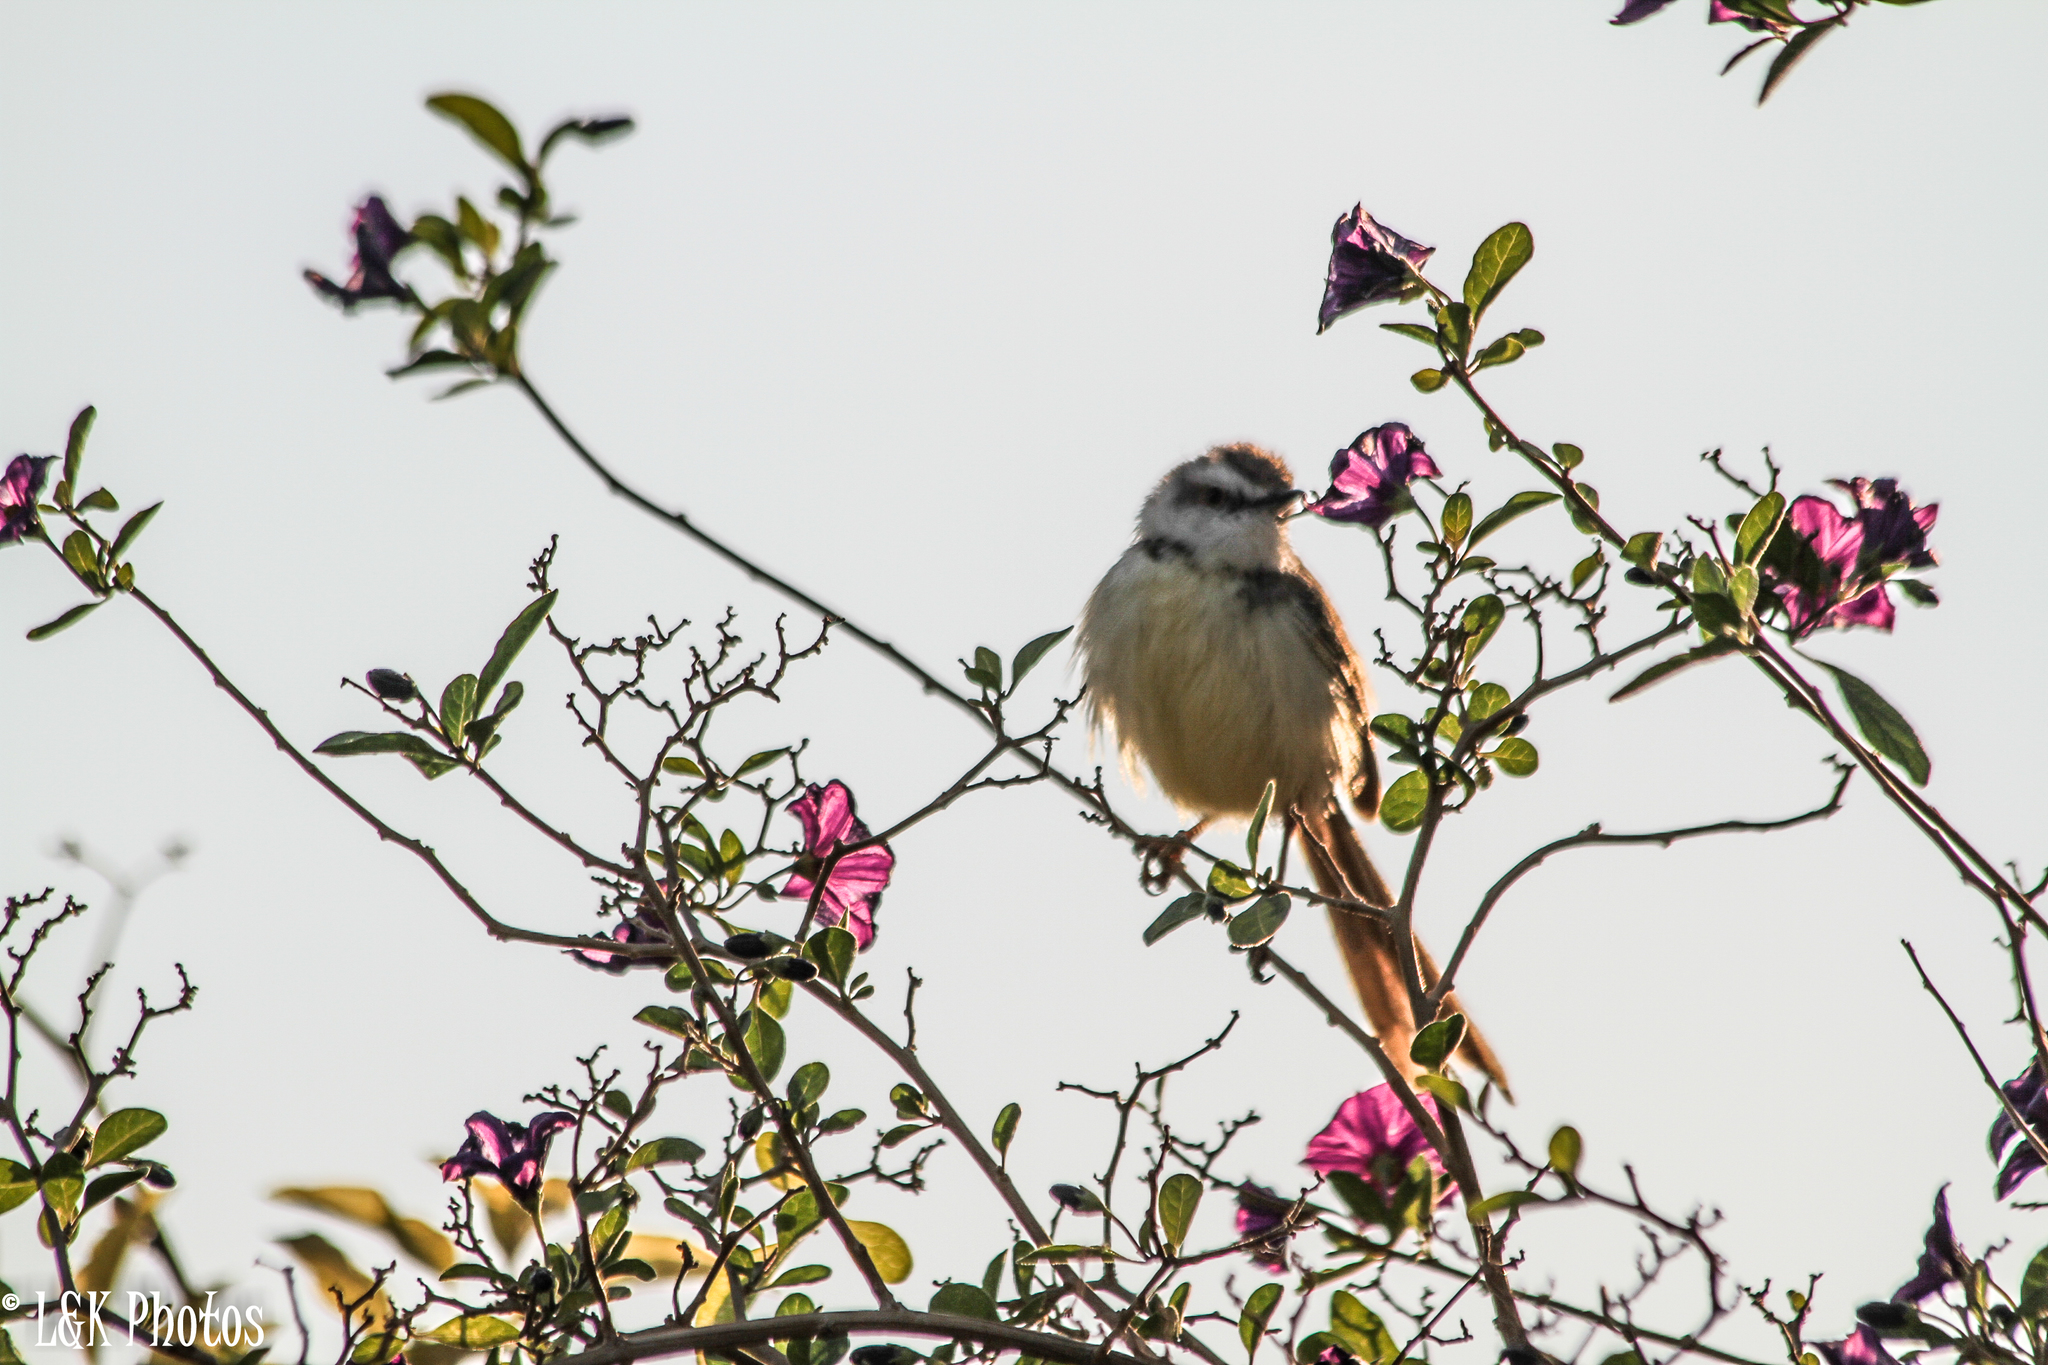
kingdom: Animalia
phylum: Chordata
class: Aves
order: Passeriformes
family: Cisticolidae
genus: Prinia
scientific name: Prinia flavicans
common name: Black-chested prinia
